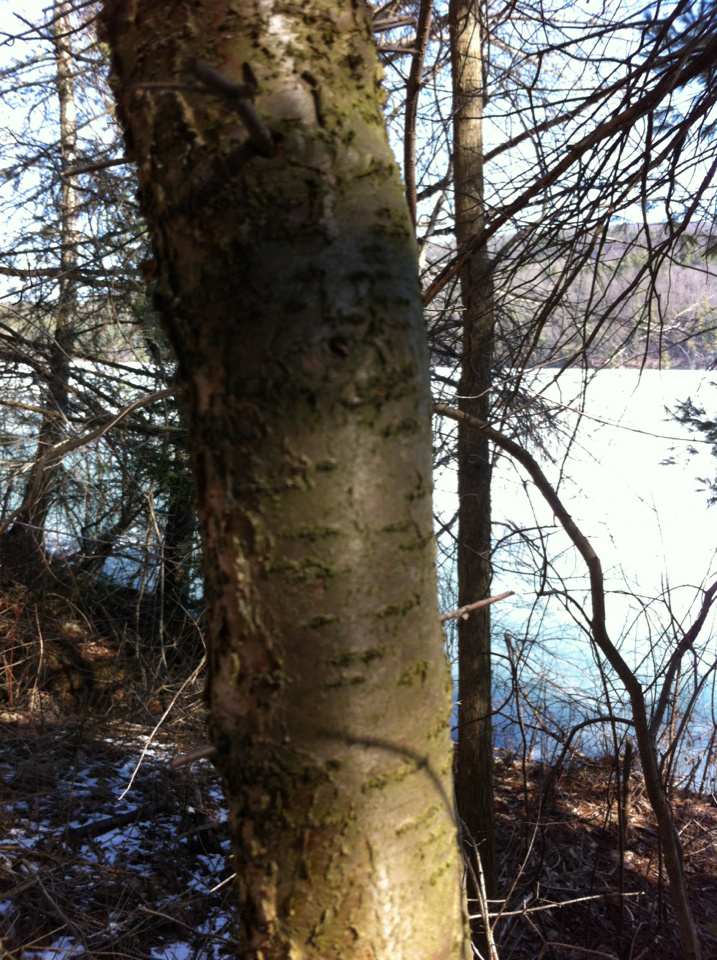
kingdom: Plantae
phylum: Tracheophyta
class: Magnoliopsida
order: Rosales
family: Rhamnaceae
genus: Rhamnus
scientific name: Rhamnus cathartica
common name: Common buckthorn
